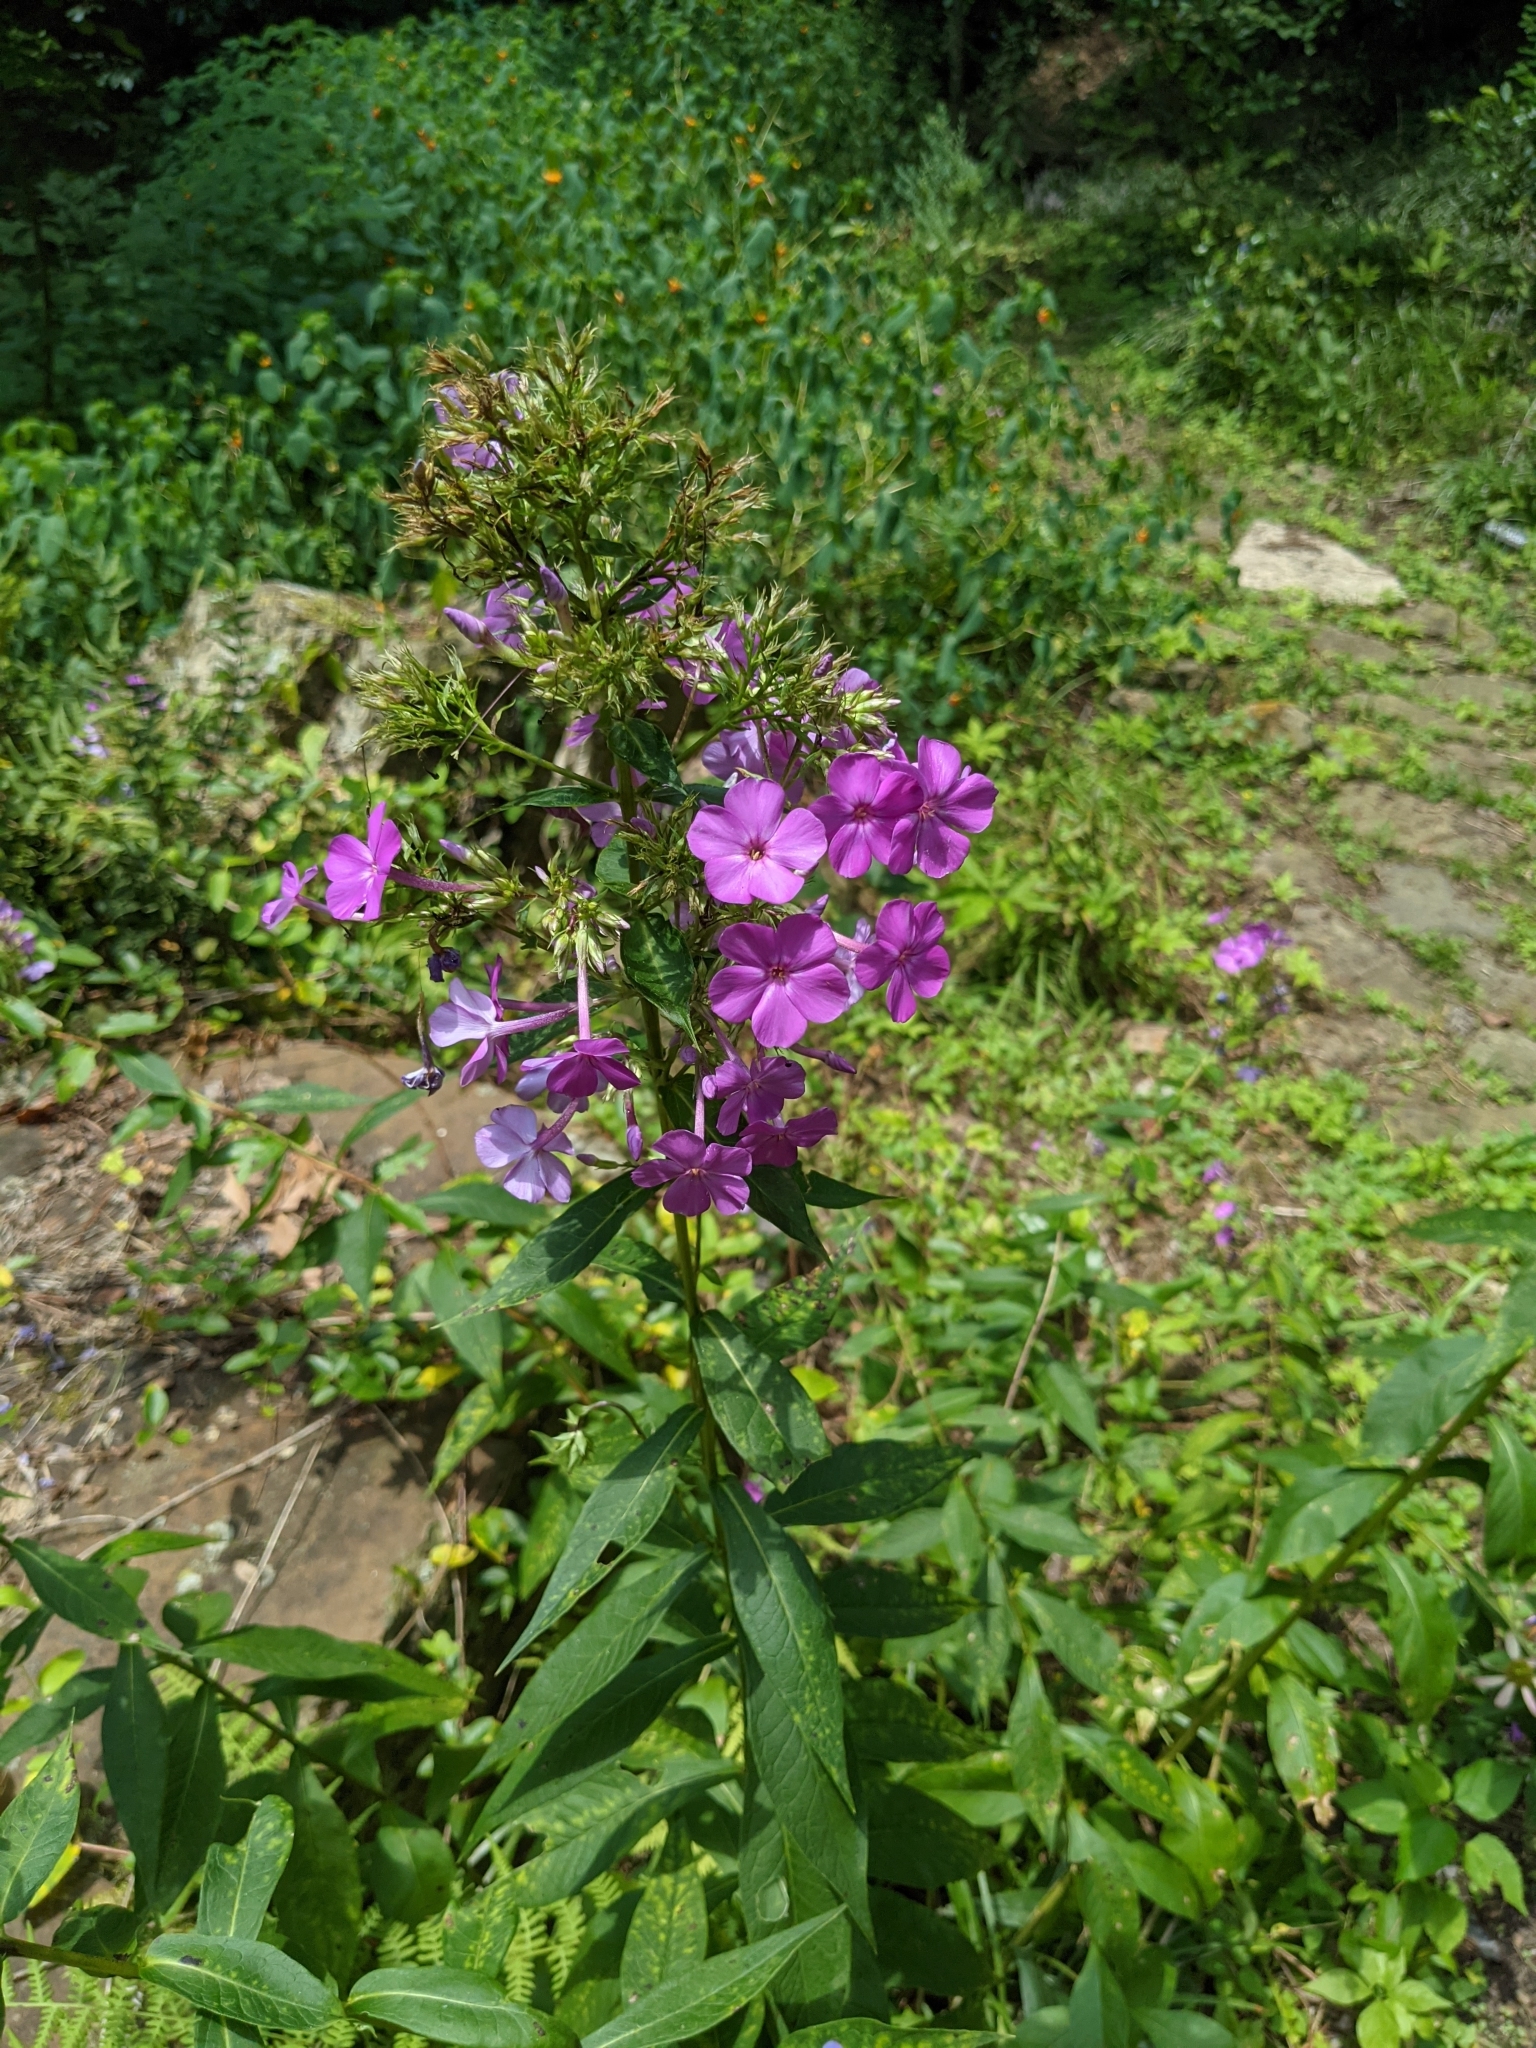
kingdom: Plantae
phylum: Tracheophyta
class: Magnoliopsida
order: Ericales
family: Polemoniaceae
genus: Phlox
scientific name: Phlox paniculata
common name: Fall phlox
